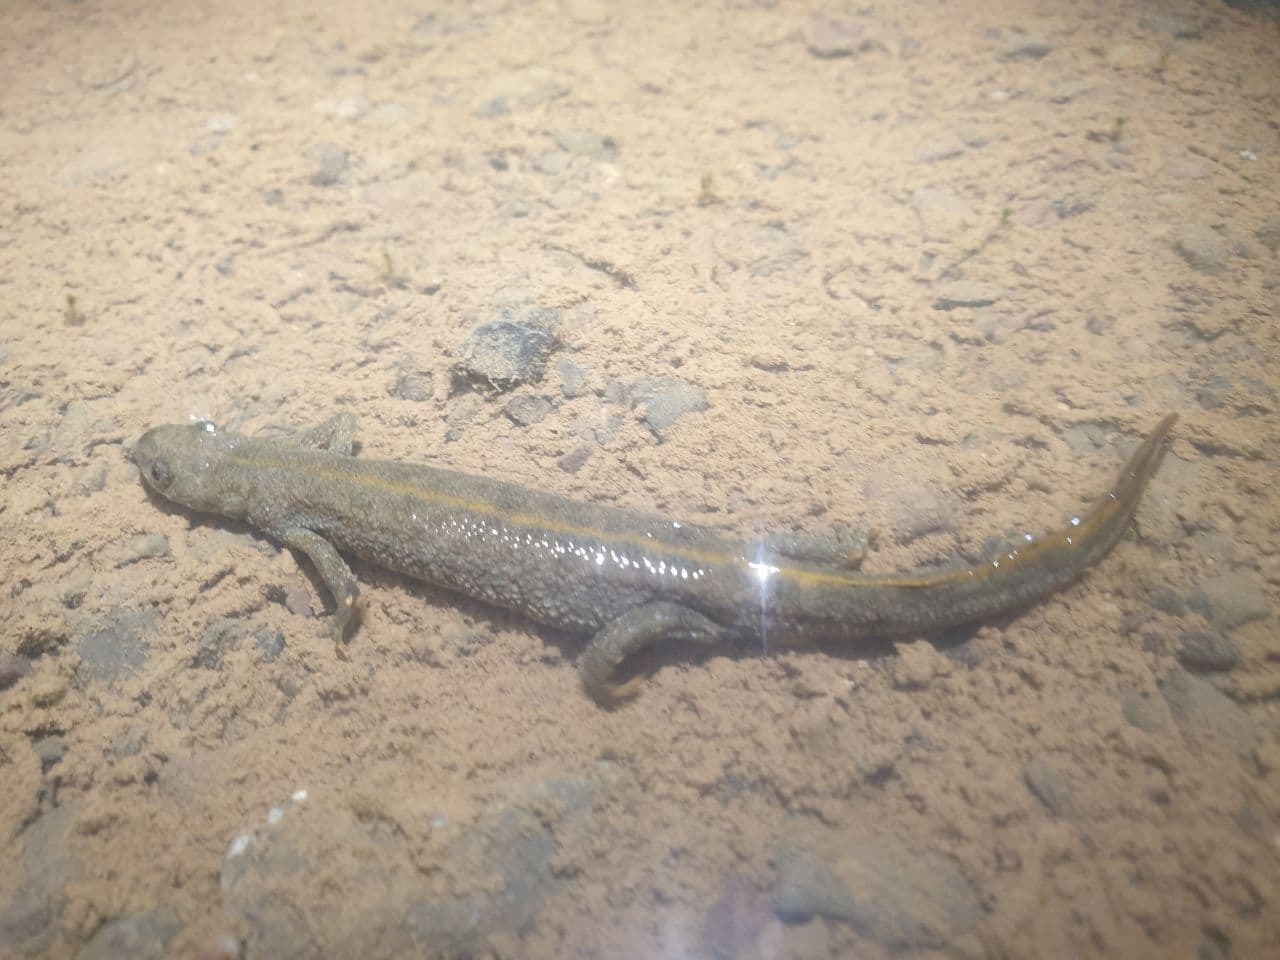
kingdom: Animalia
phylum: Chordata
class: Amphibia
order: Caudata
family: Salamandridae
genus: Triturus
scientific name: Triturus cristatus
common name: Crested newt
